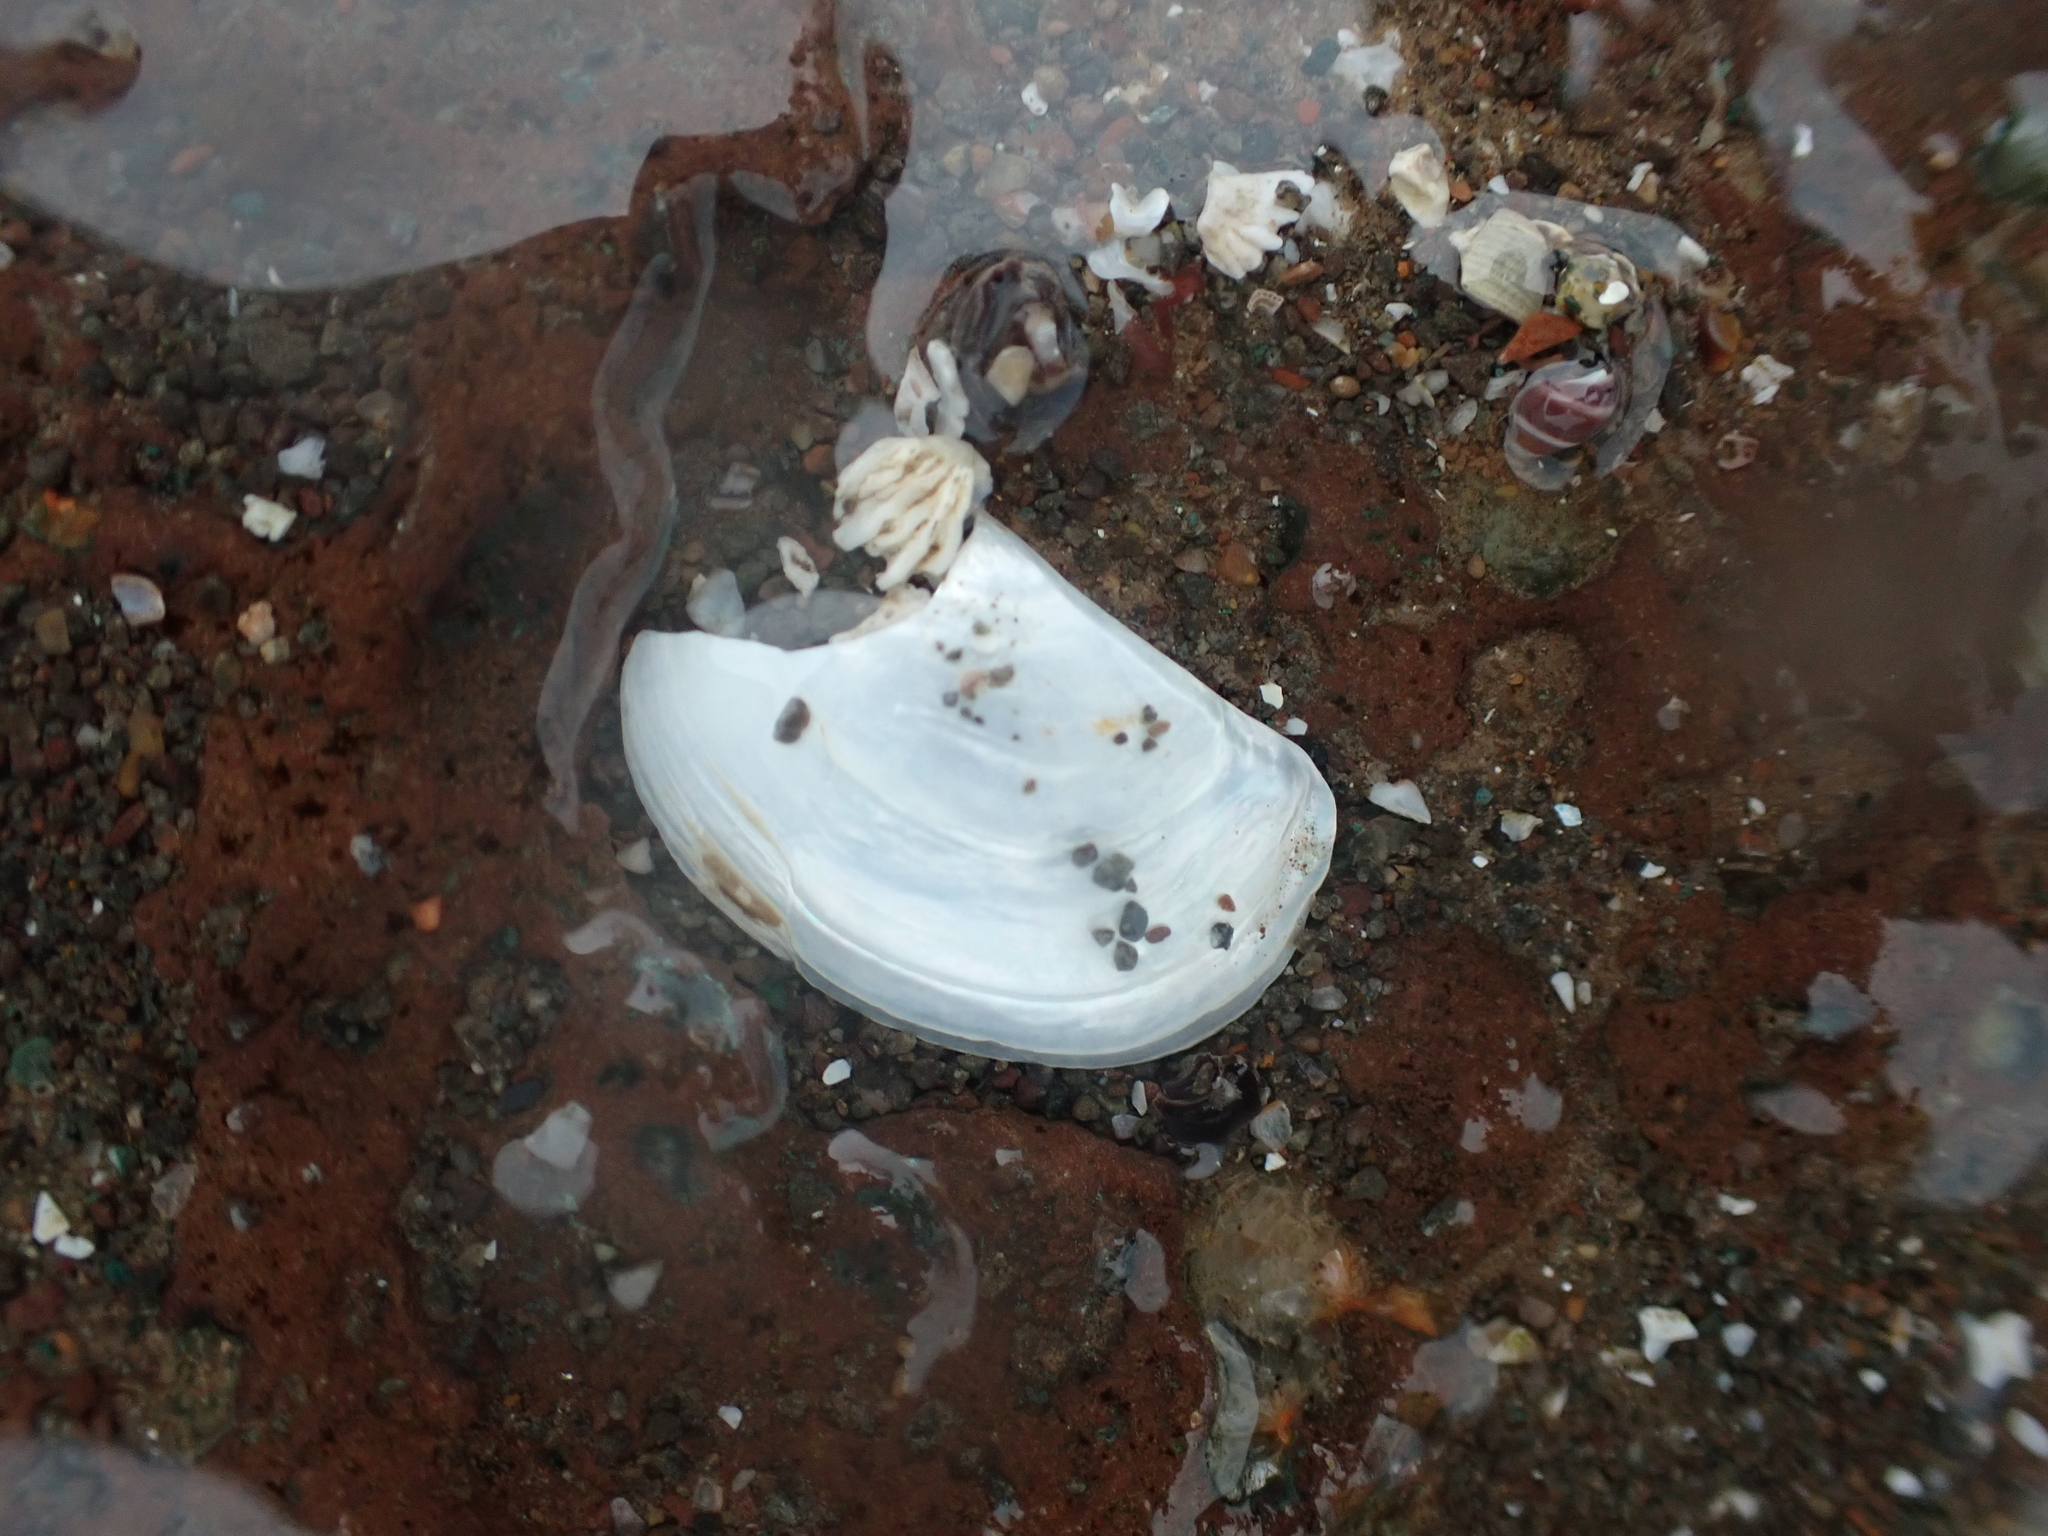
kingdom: Animalia
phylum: Mollusca
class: Bivalvia
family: Pandoridae
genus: Pandora
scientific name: Pandora gouldiana
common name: Rounded pandora
